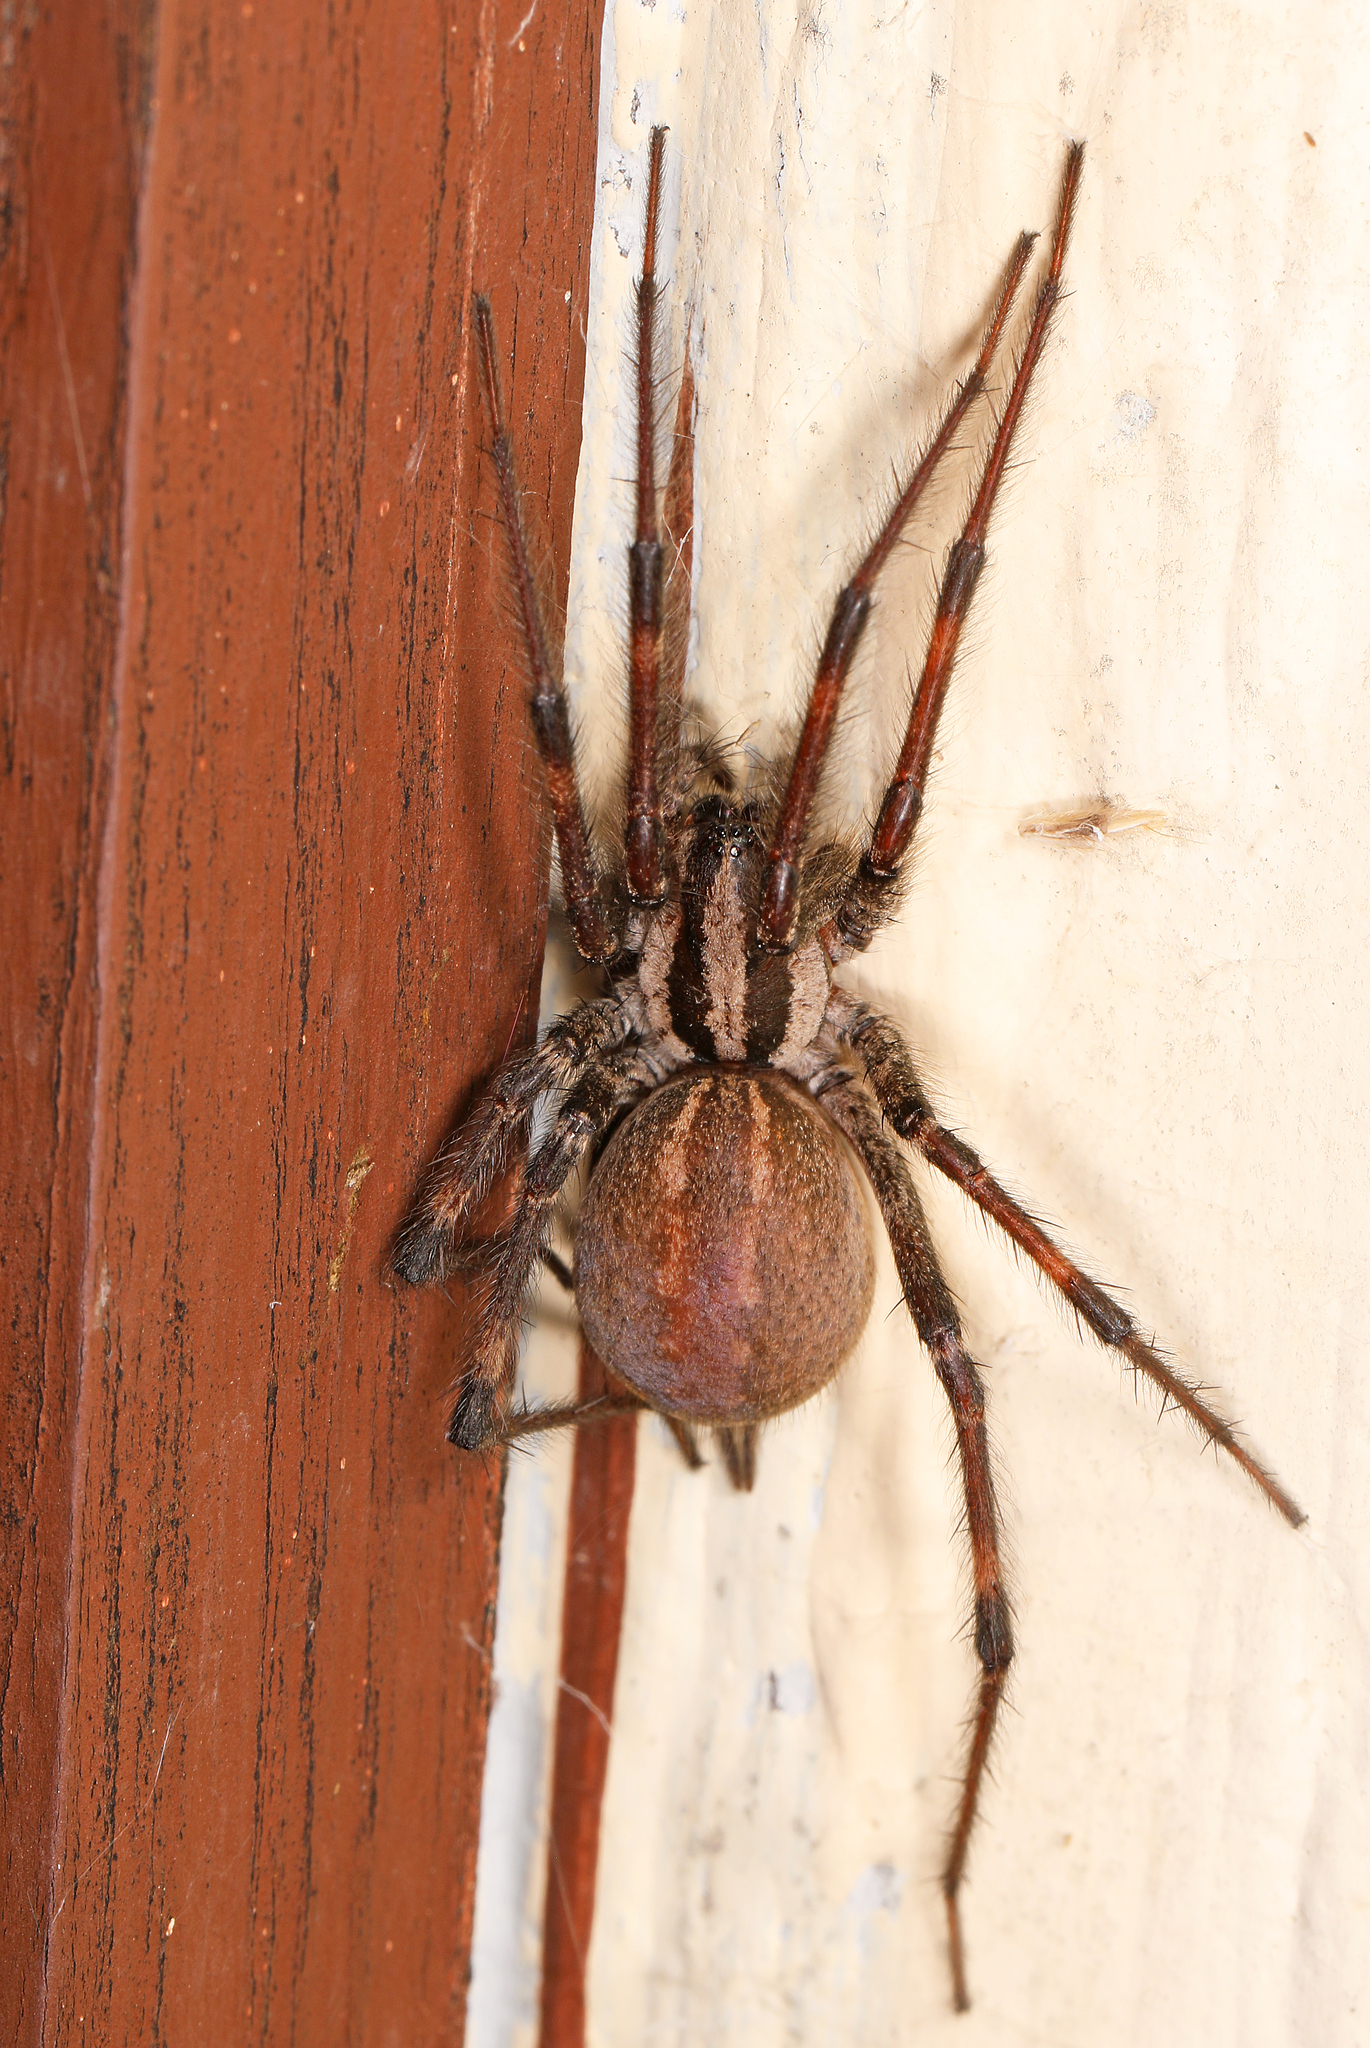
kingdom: Animalia
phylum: Arthropoda
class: Arachnida
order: Araneae
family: Agelenidae
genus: Agelenopsis
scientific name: Agelenopsis
